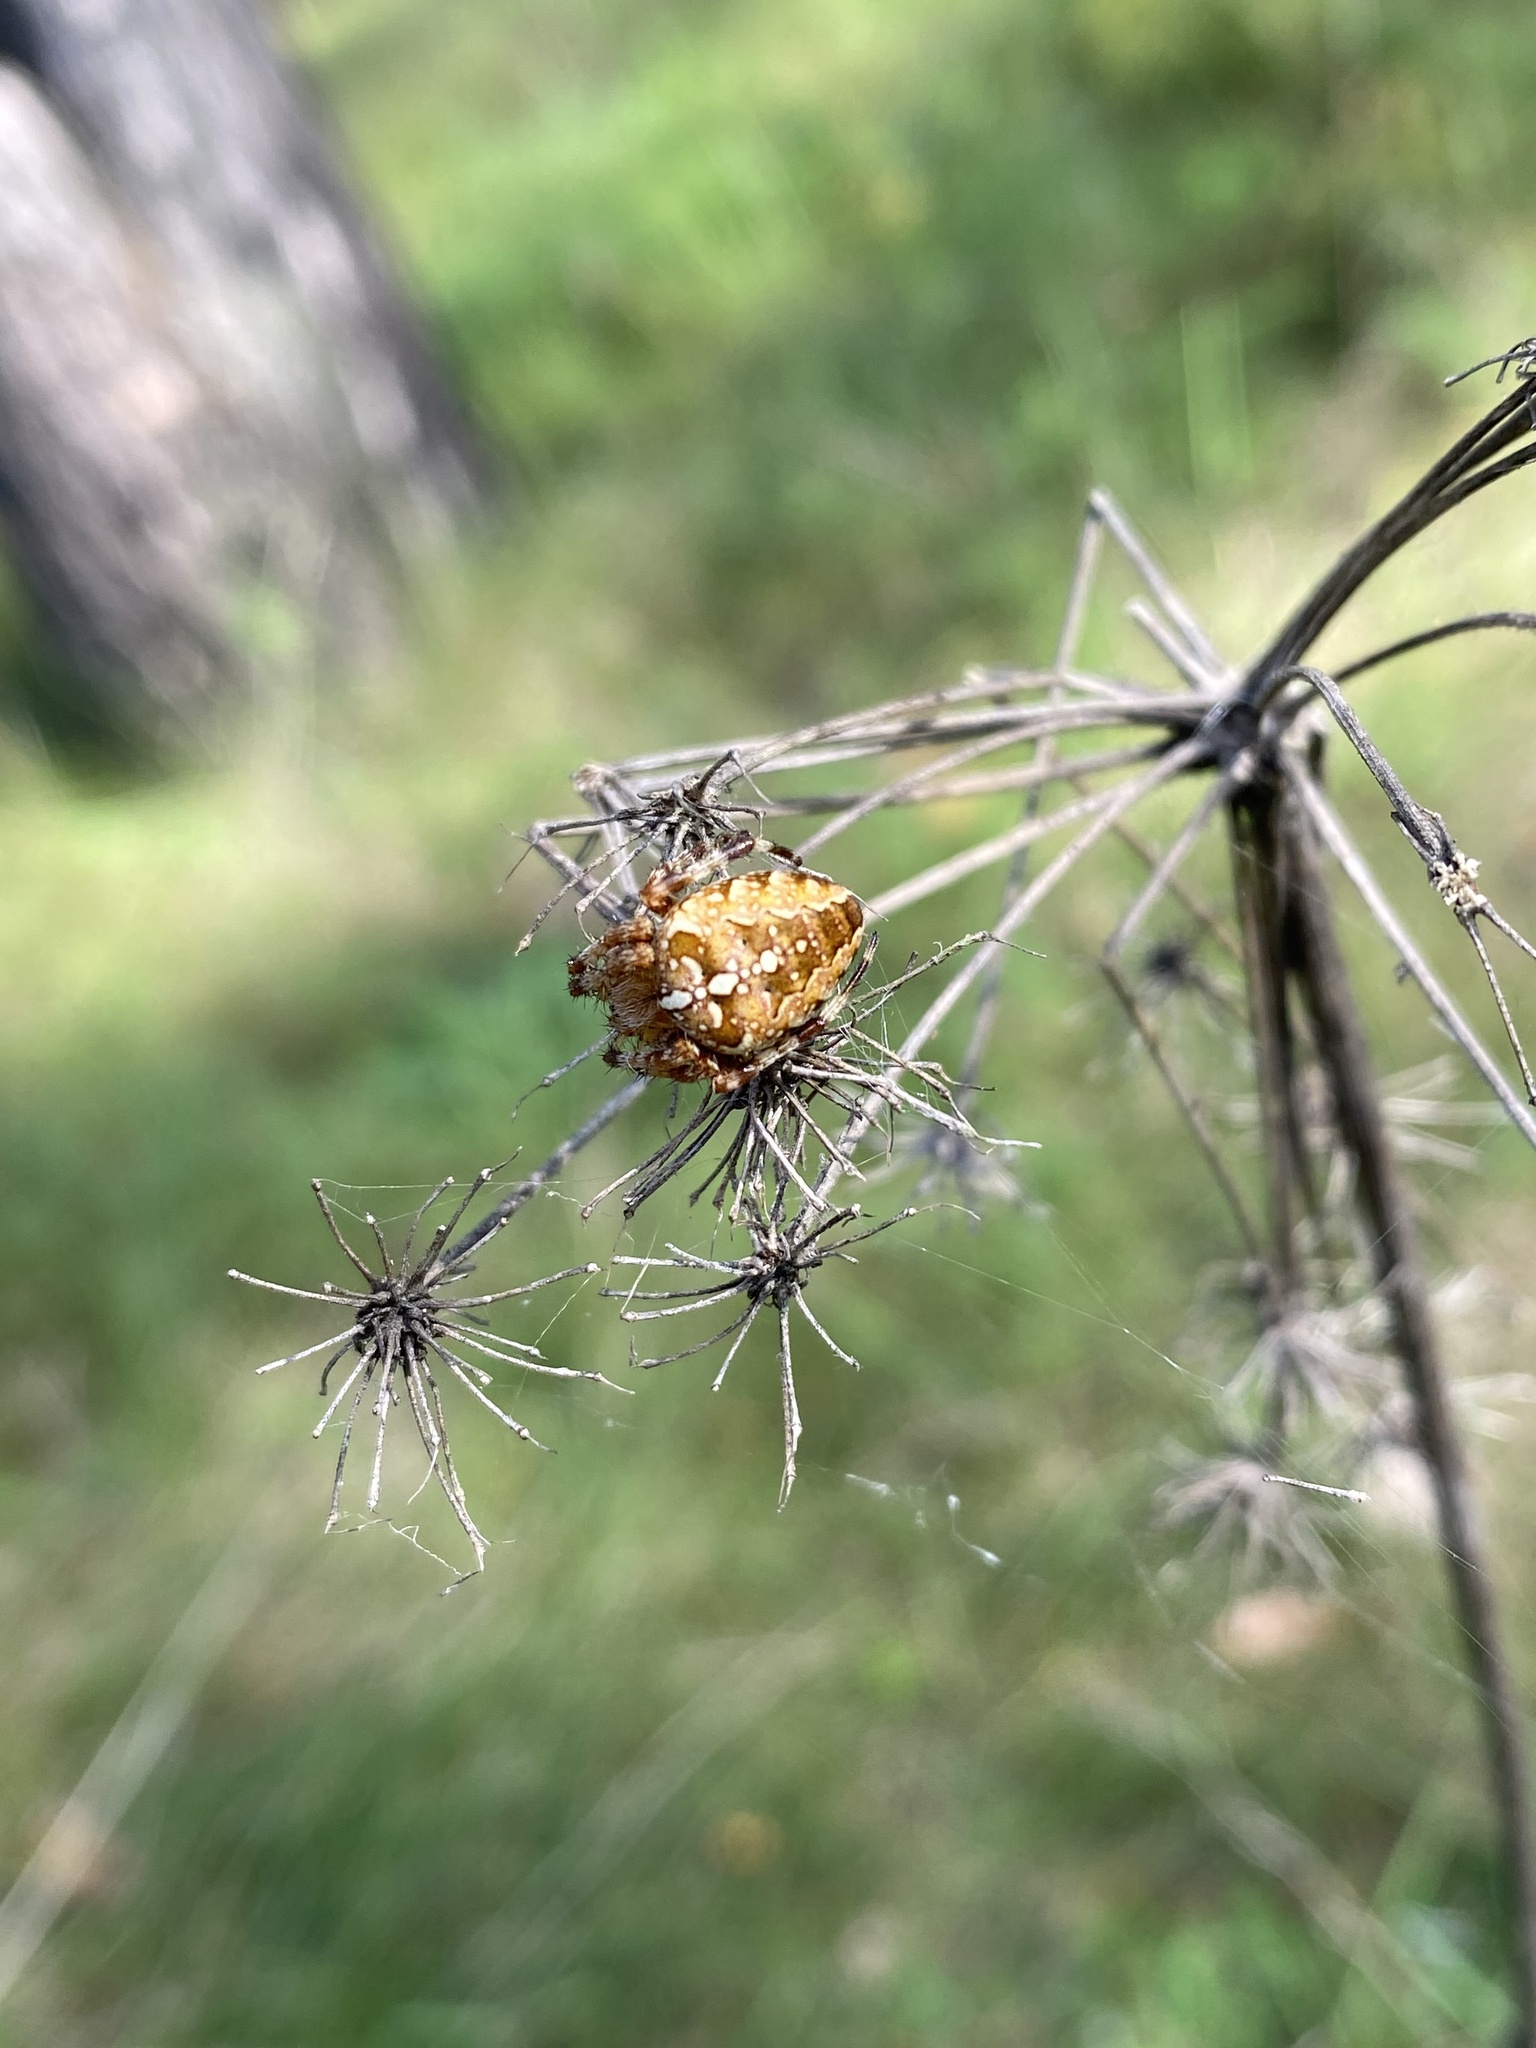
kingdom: Animalia
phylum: Arthropoda
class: Arachnida
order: Araneae
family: Araneidae
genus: Araneus
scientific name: Araneus diadematus
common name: Cross orbweaver
